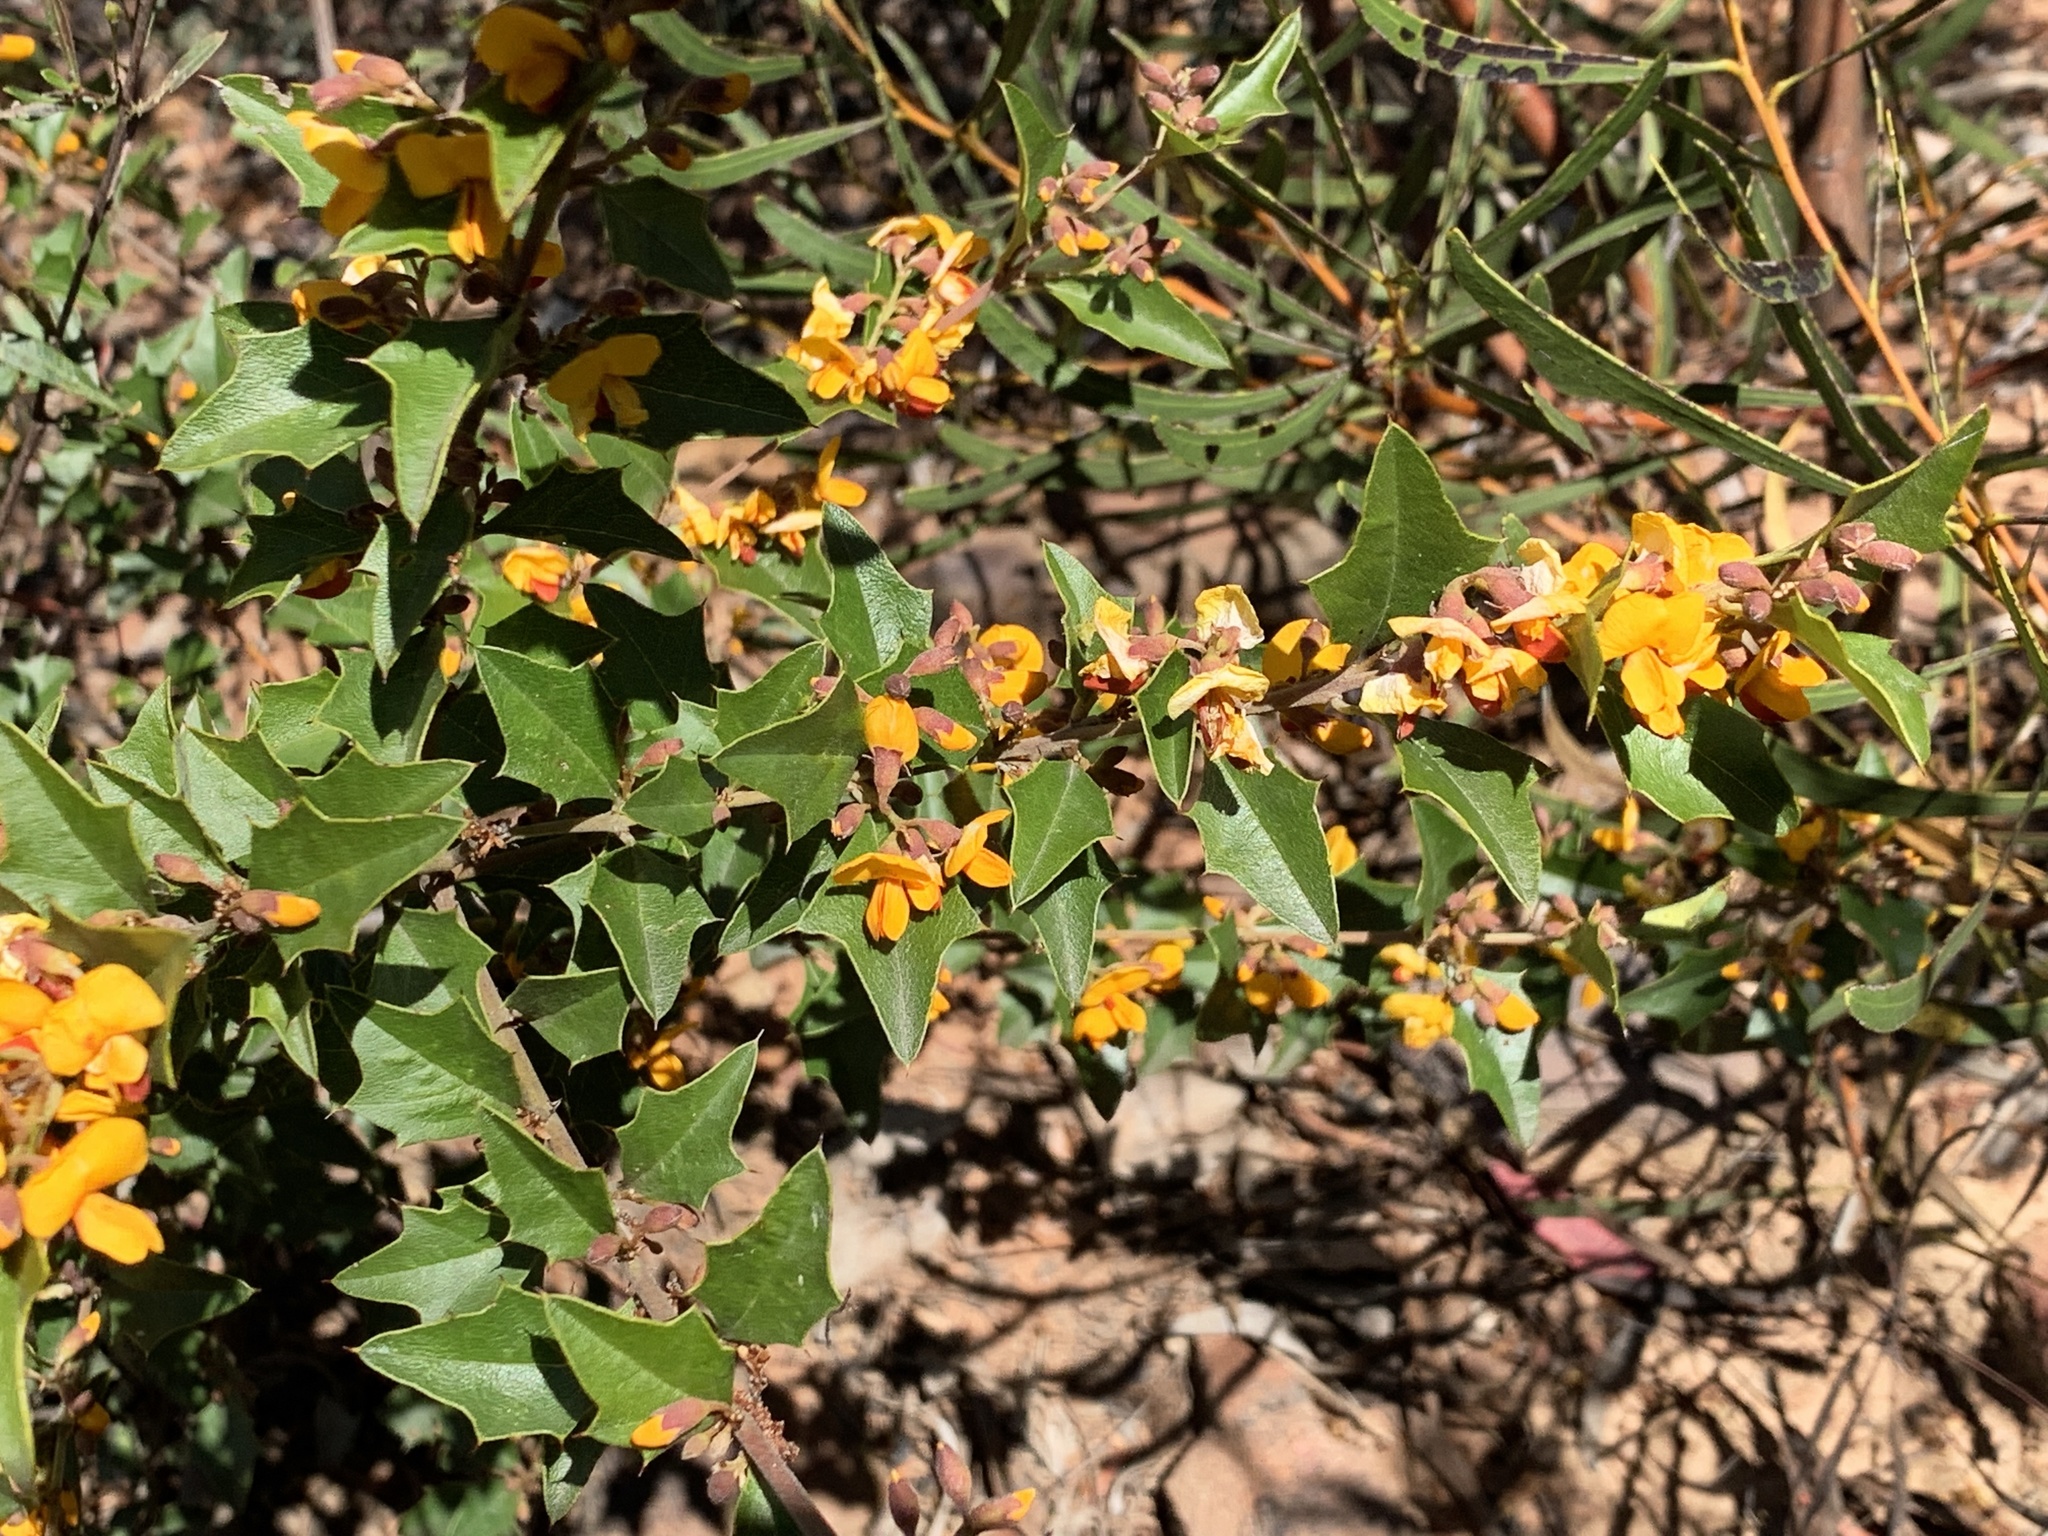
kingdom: Plantae
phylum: Tracheophyta
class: Magnoliopsida
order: Fabales
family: Fabaceae
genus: Podolobium
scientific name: Podolobium ilicifolium
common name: Native holly
